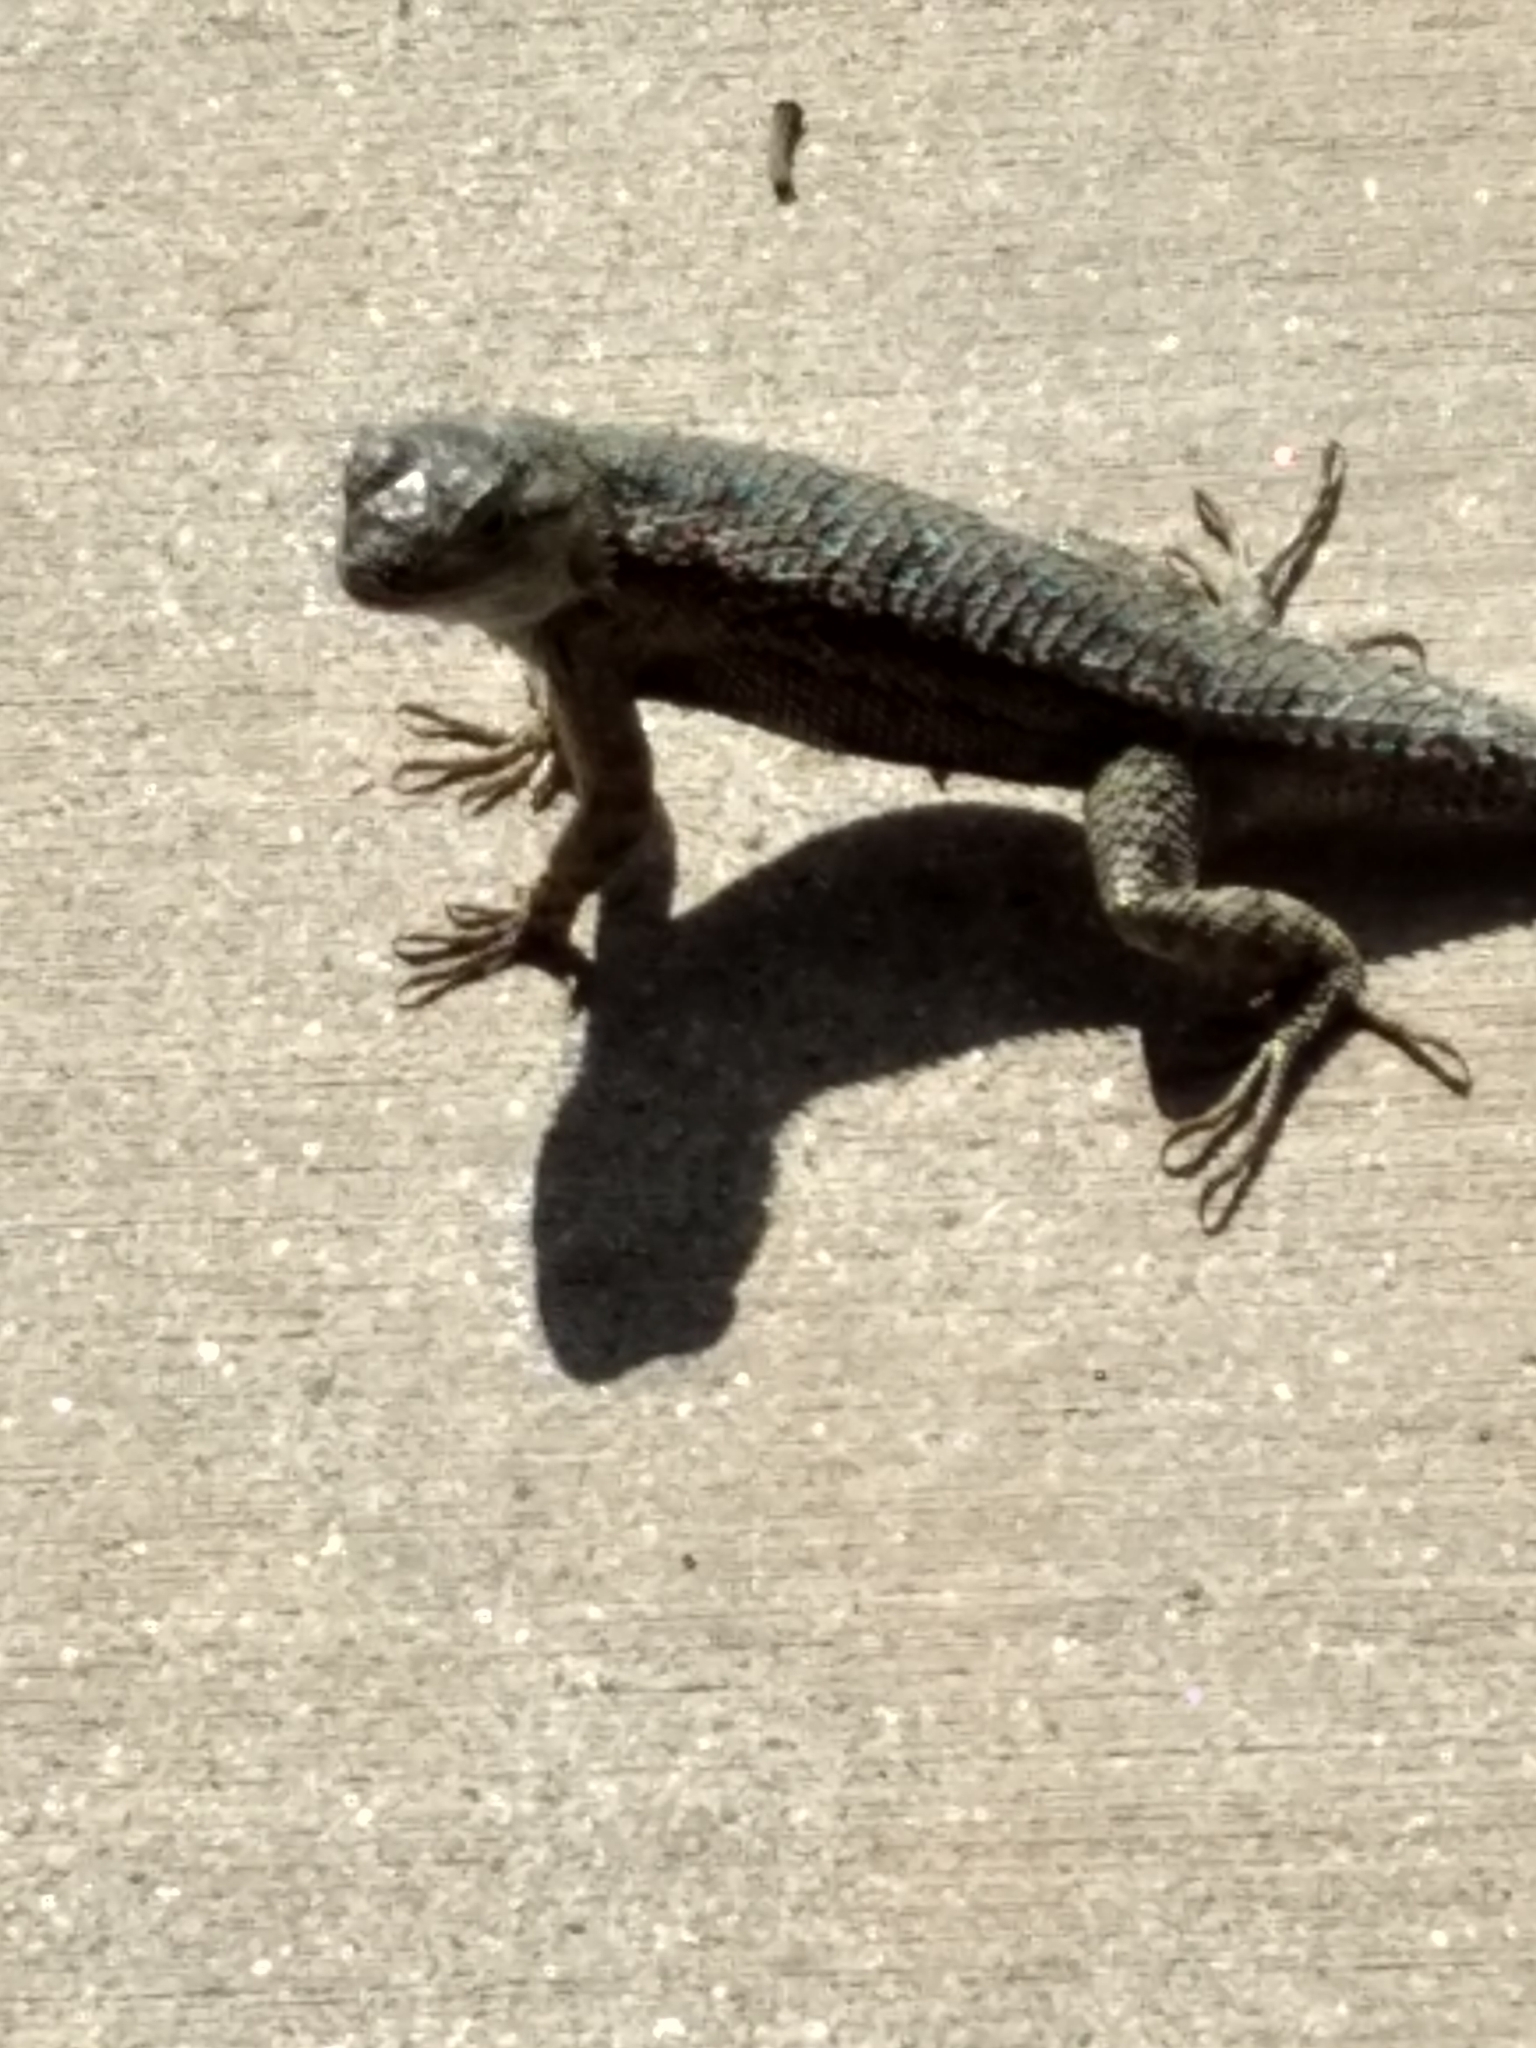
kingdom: Animalia
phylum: Chordata
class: Squamata
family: Phrynosomatidae
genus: Sceloporus
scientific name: Sceloporus occidentalis
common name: Western fence lizard
